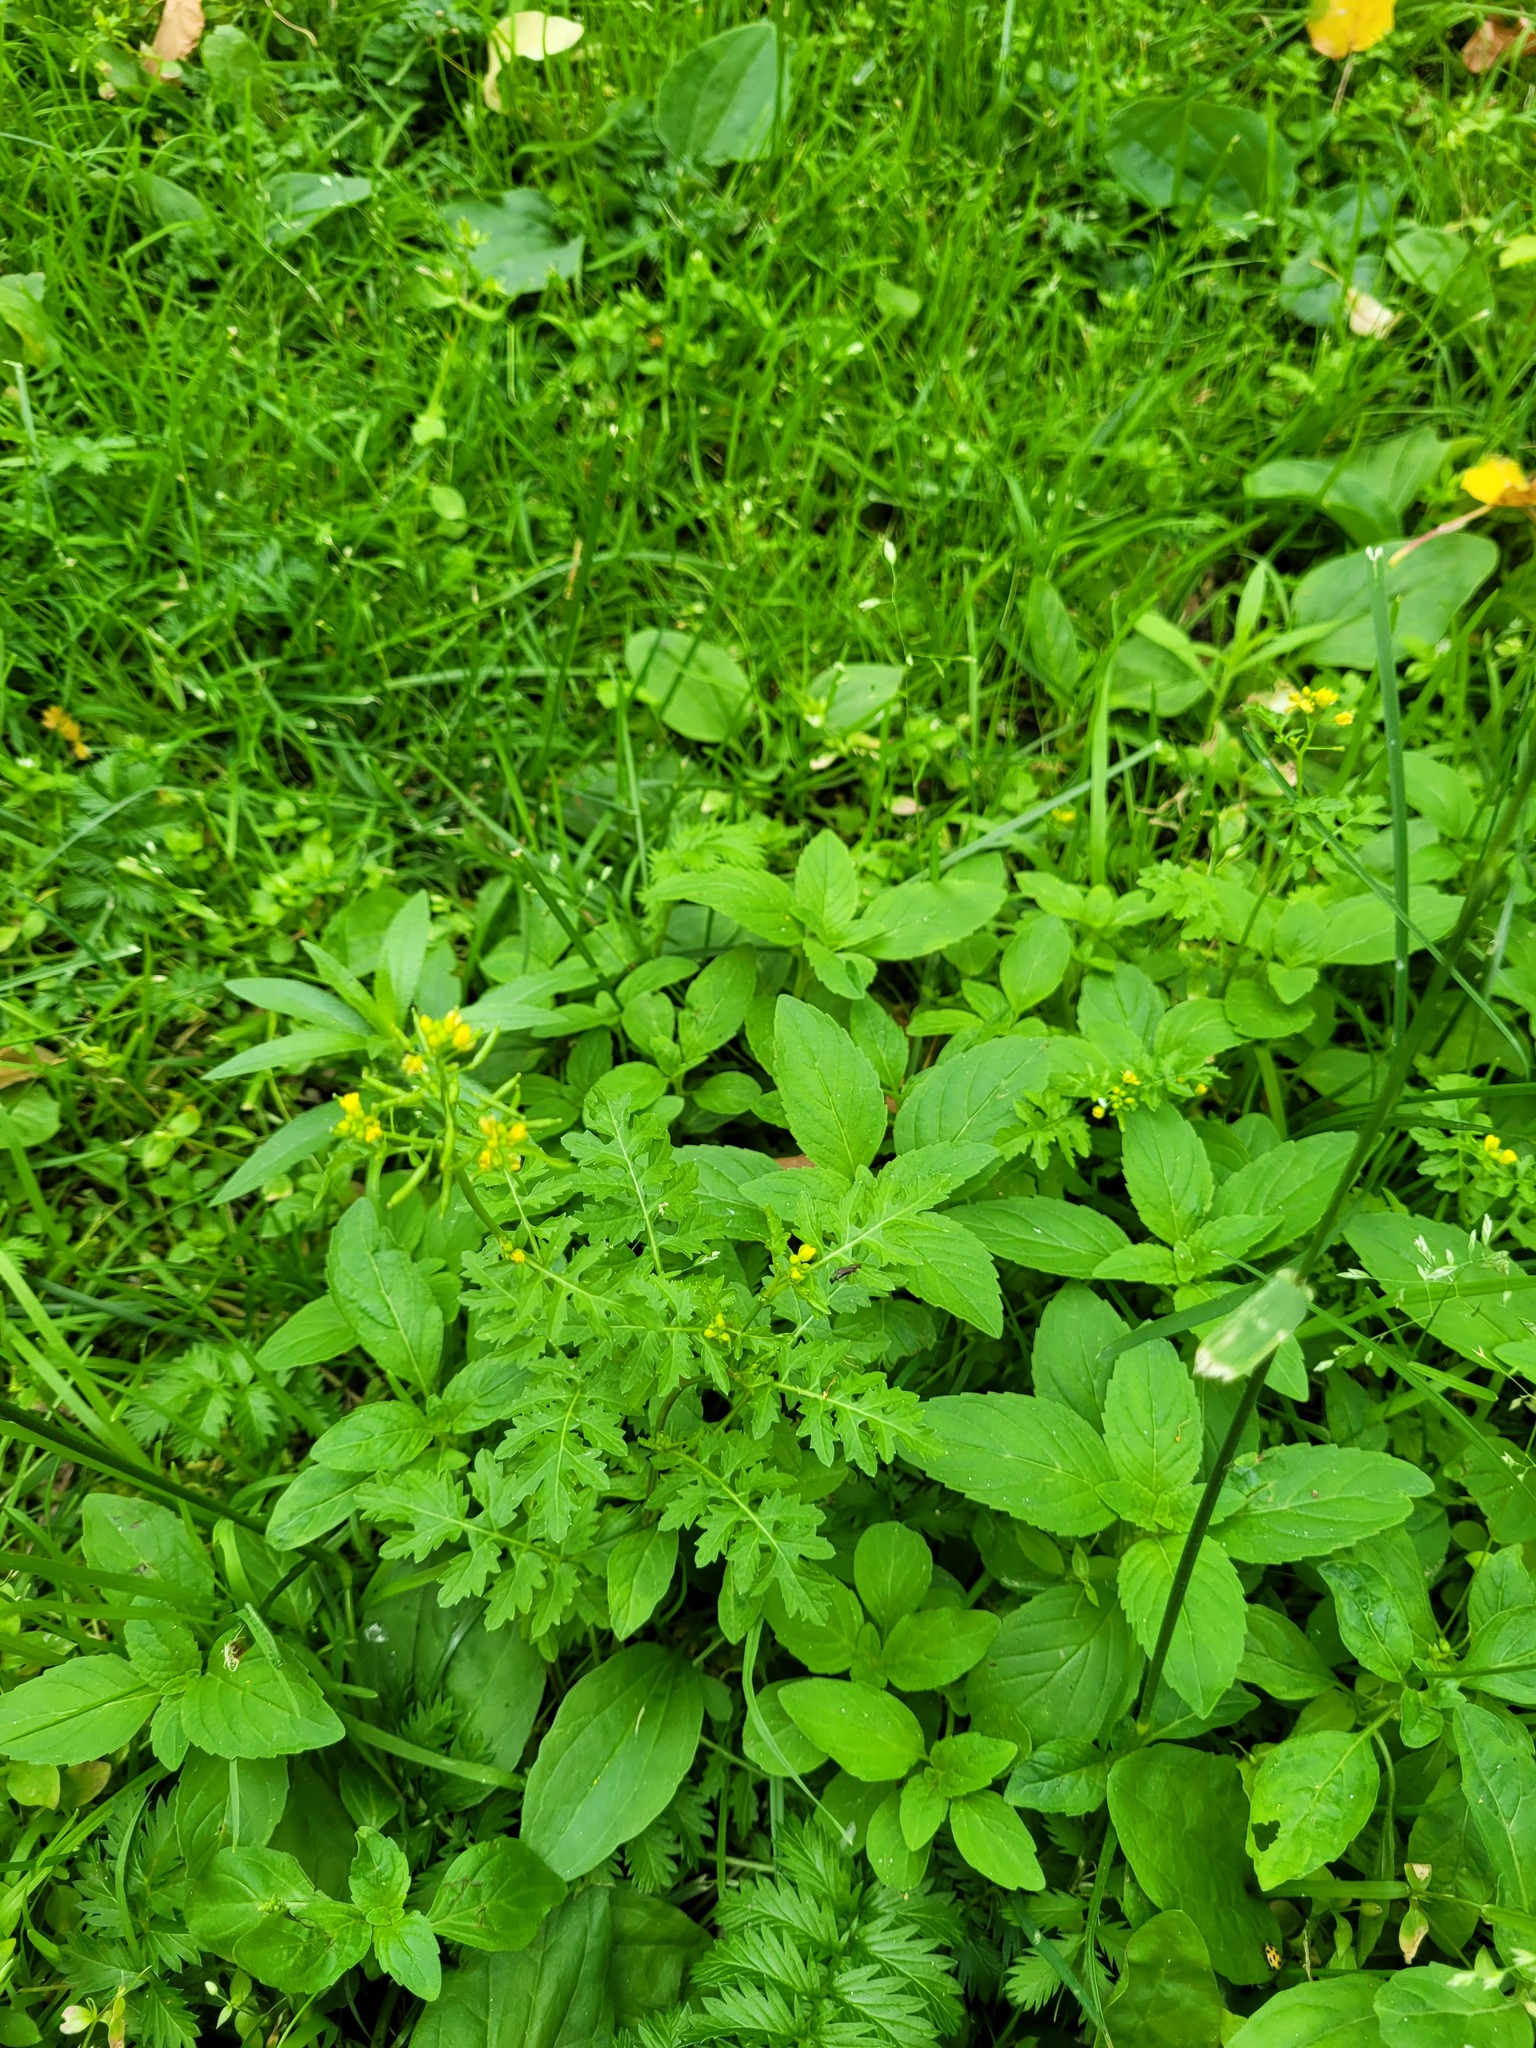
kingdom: Plantae
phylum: Tracheophyta
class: Magnoliopsida
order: Brassicales
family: Brassicaceae
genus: Rorippa
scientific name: Rorippa palustris
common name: Marsh yellow-cress
